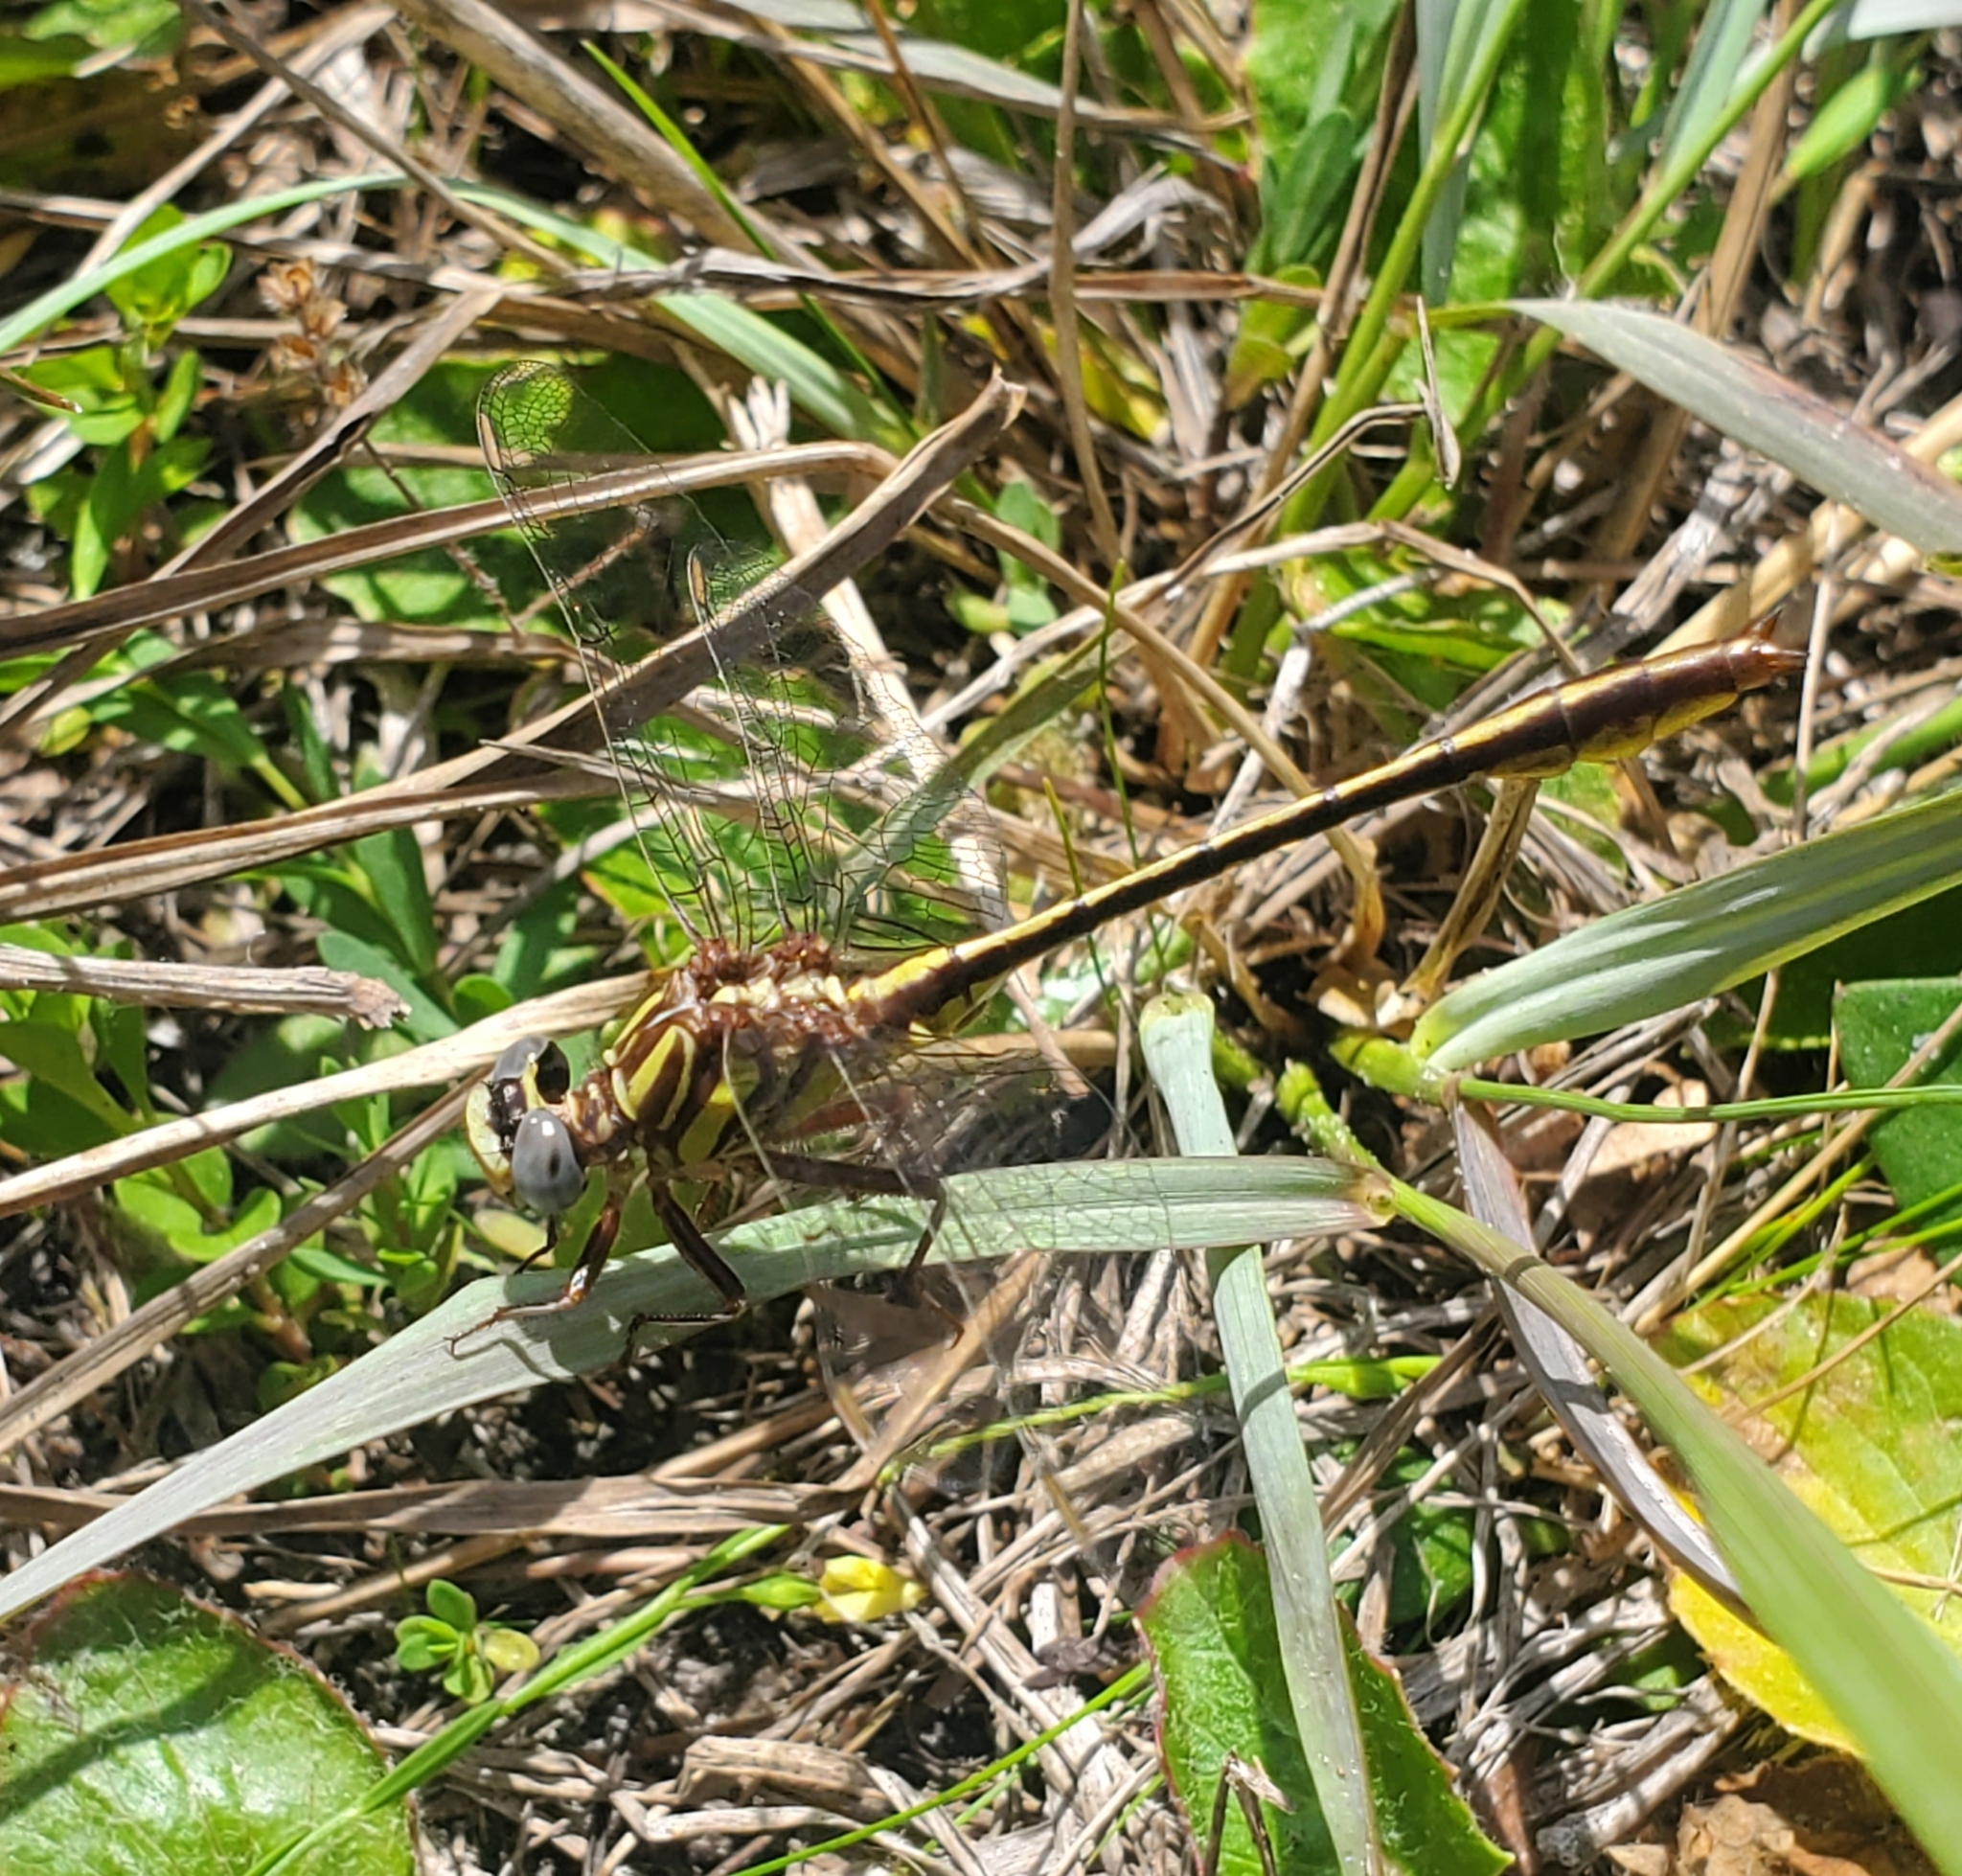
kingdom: Animalia
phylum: Arthropoda
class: Insecta
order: Odonata
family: Gomphidae
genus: Phanogomphus
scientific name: Phanogomphus minutus
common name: Cypress clubtail
